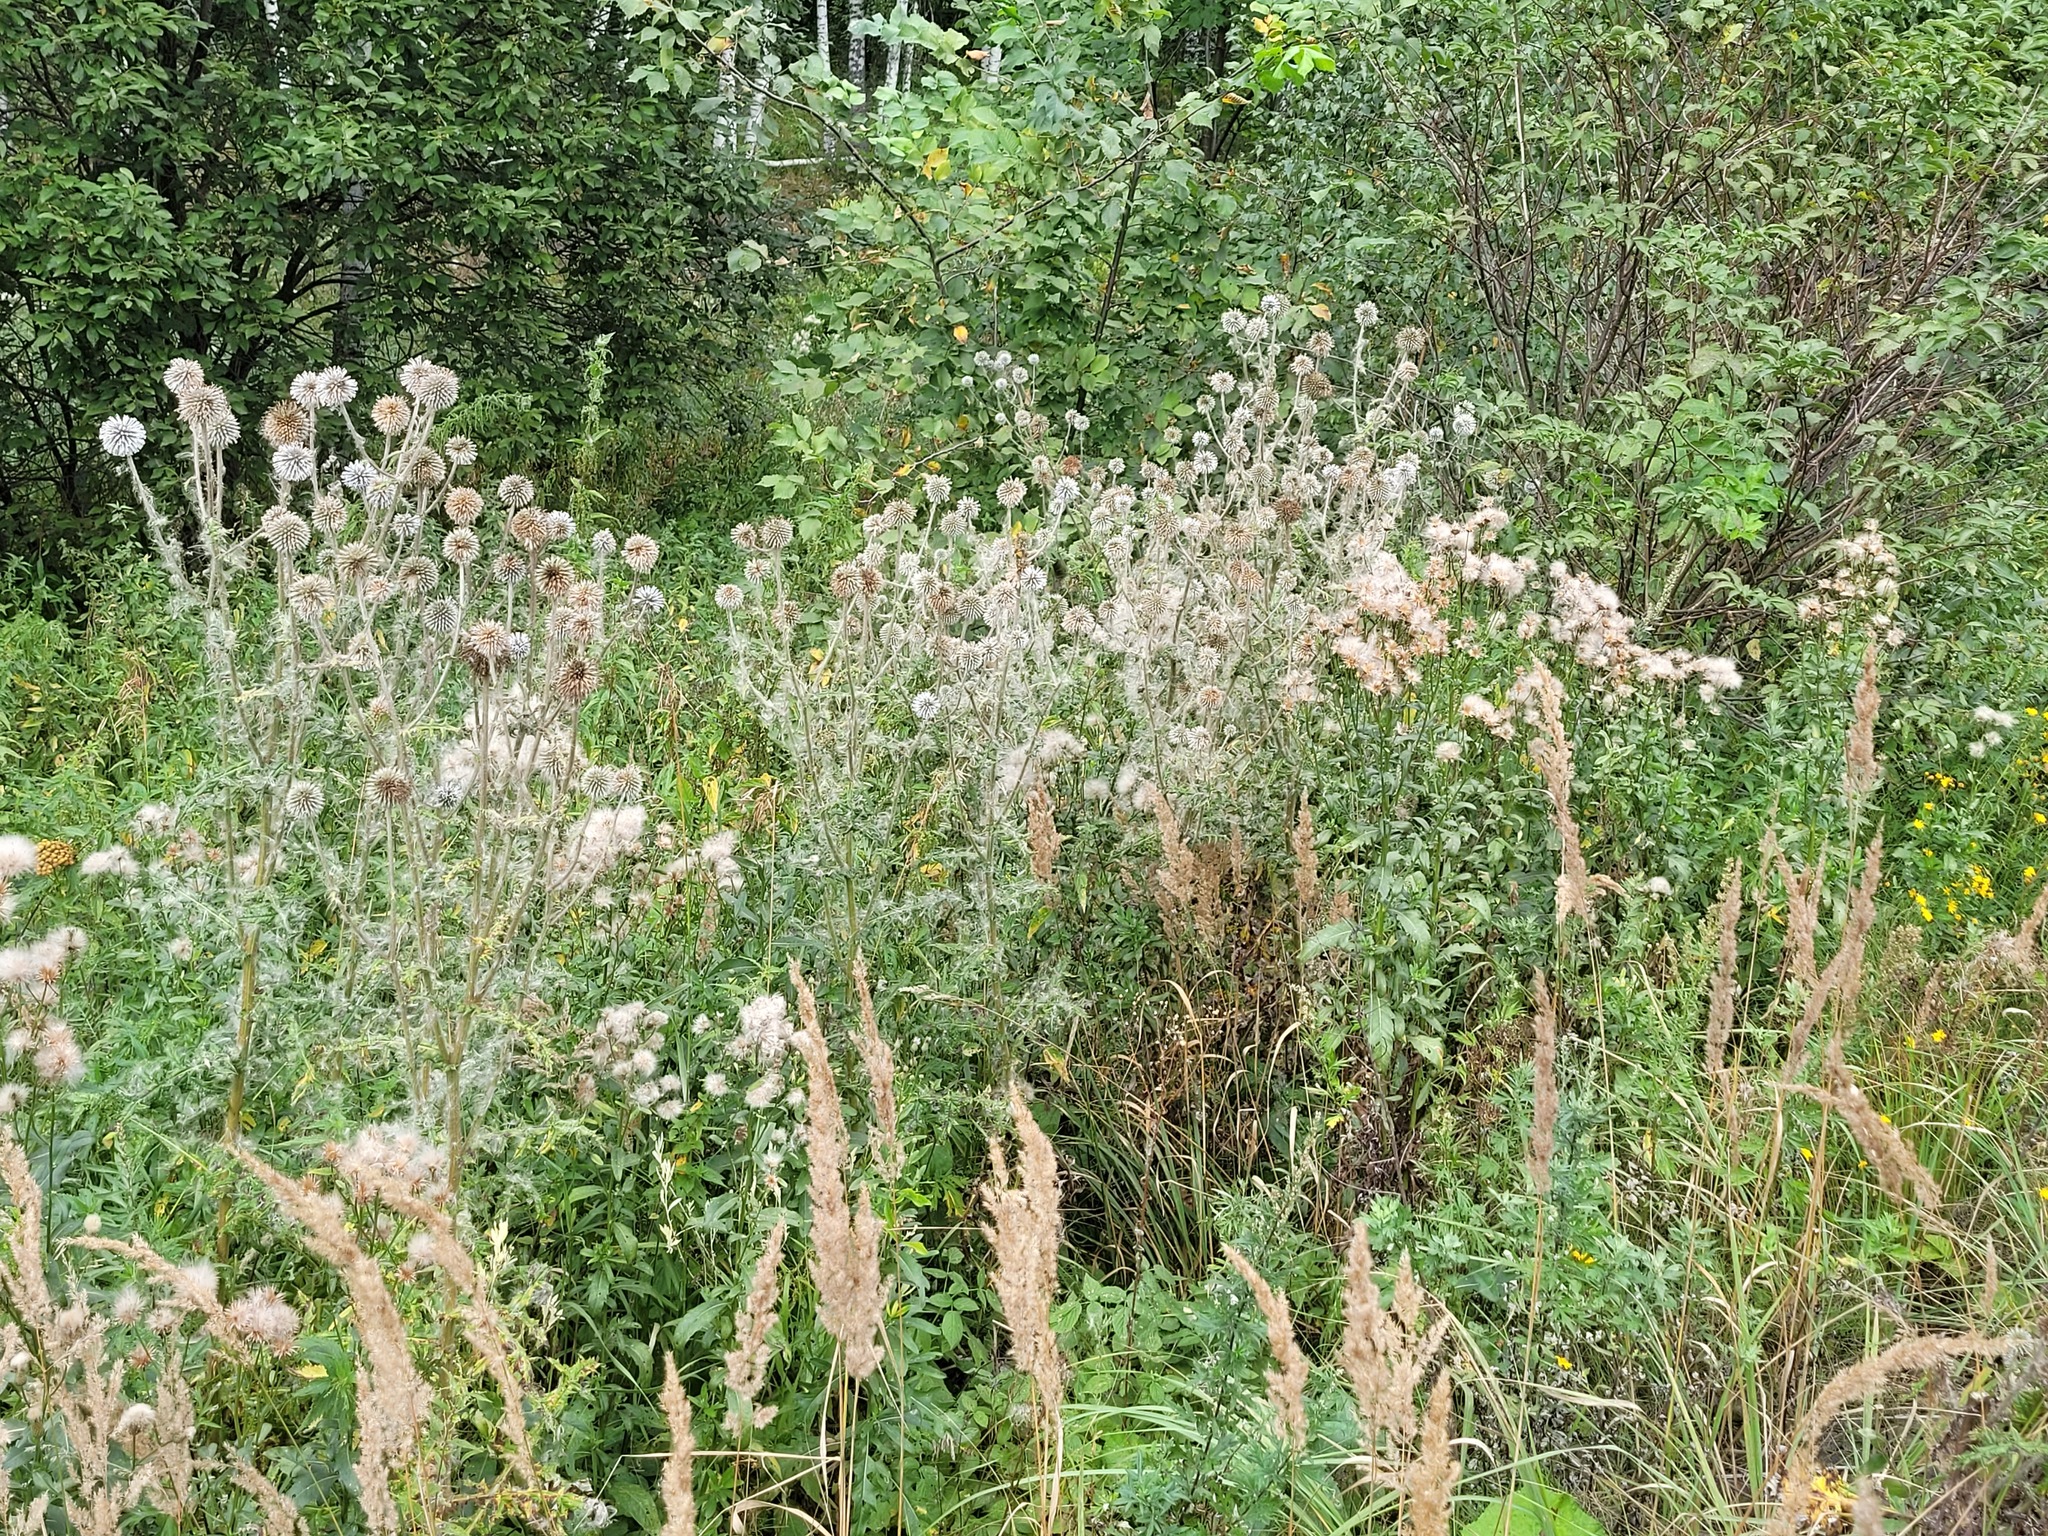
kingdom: Plantae
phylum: Tracheophyta
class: Magnoliopsida
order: Asterales
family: Asteraceae
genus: Echinops
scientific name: Echinops sphaerocephalus
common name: Glandular globe-thistle
